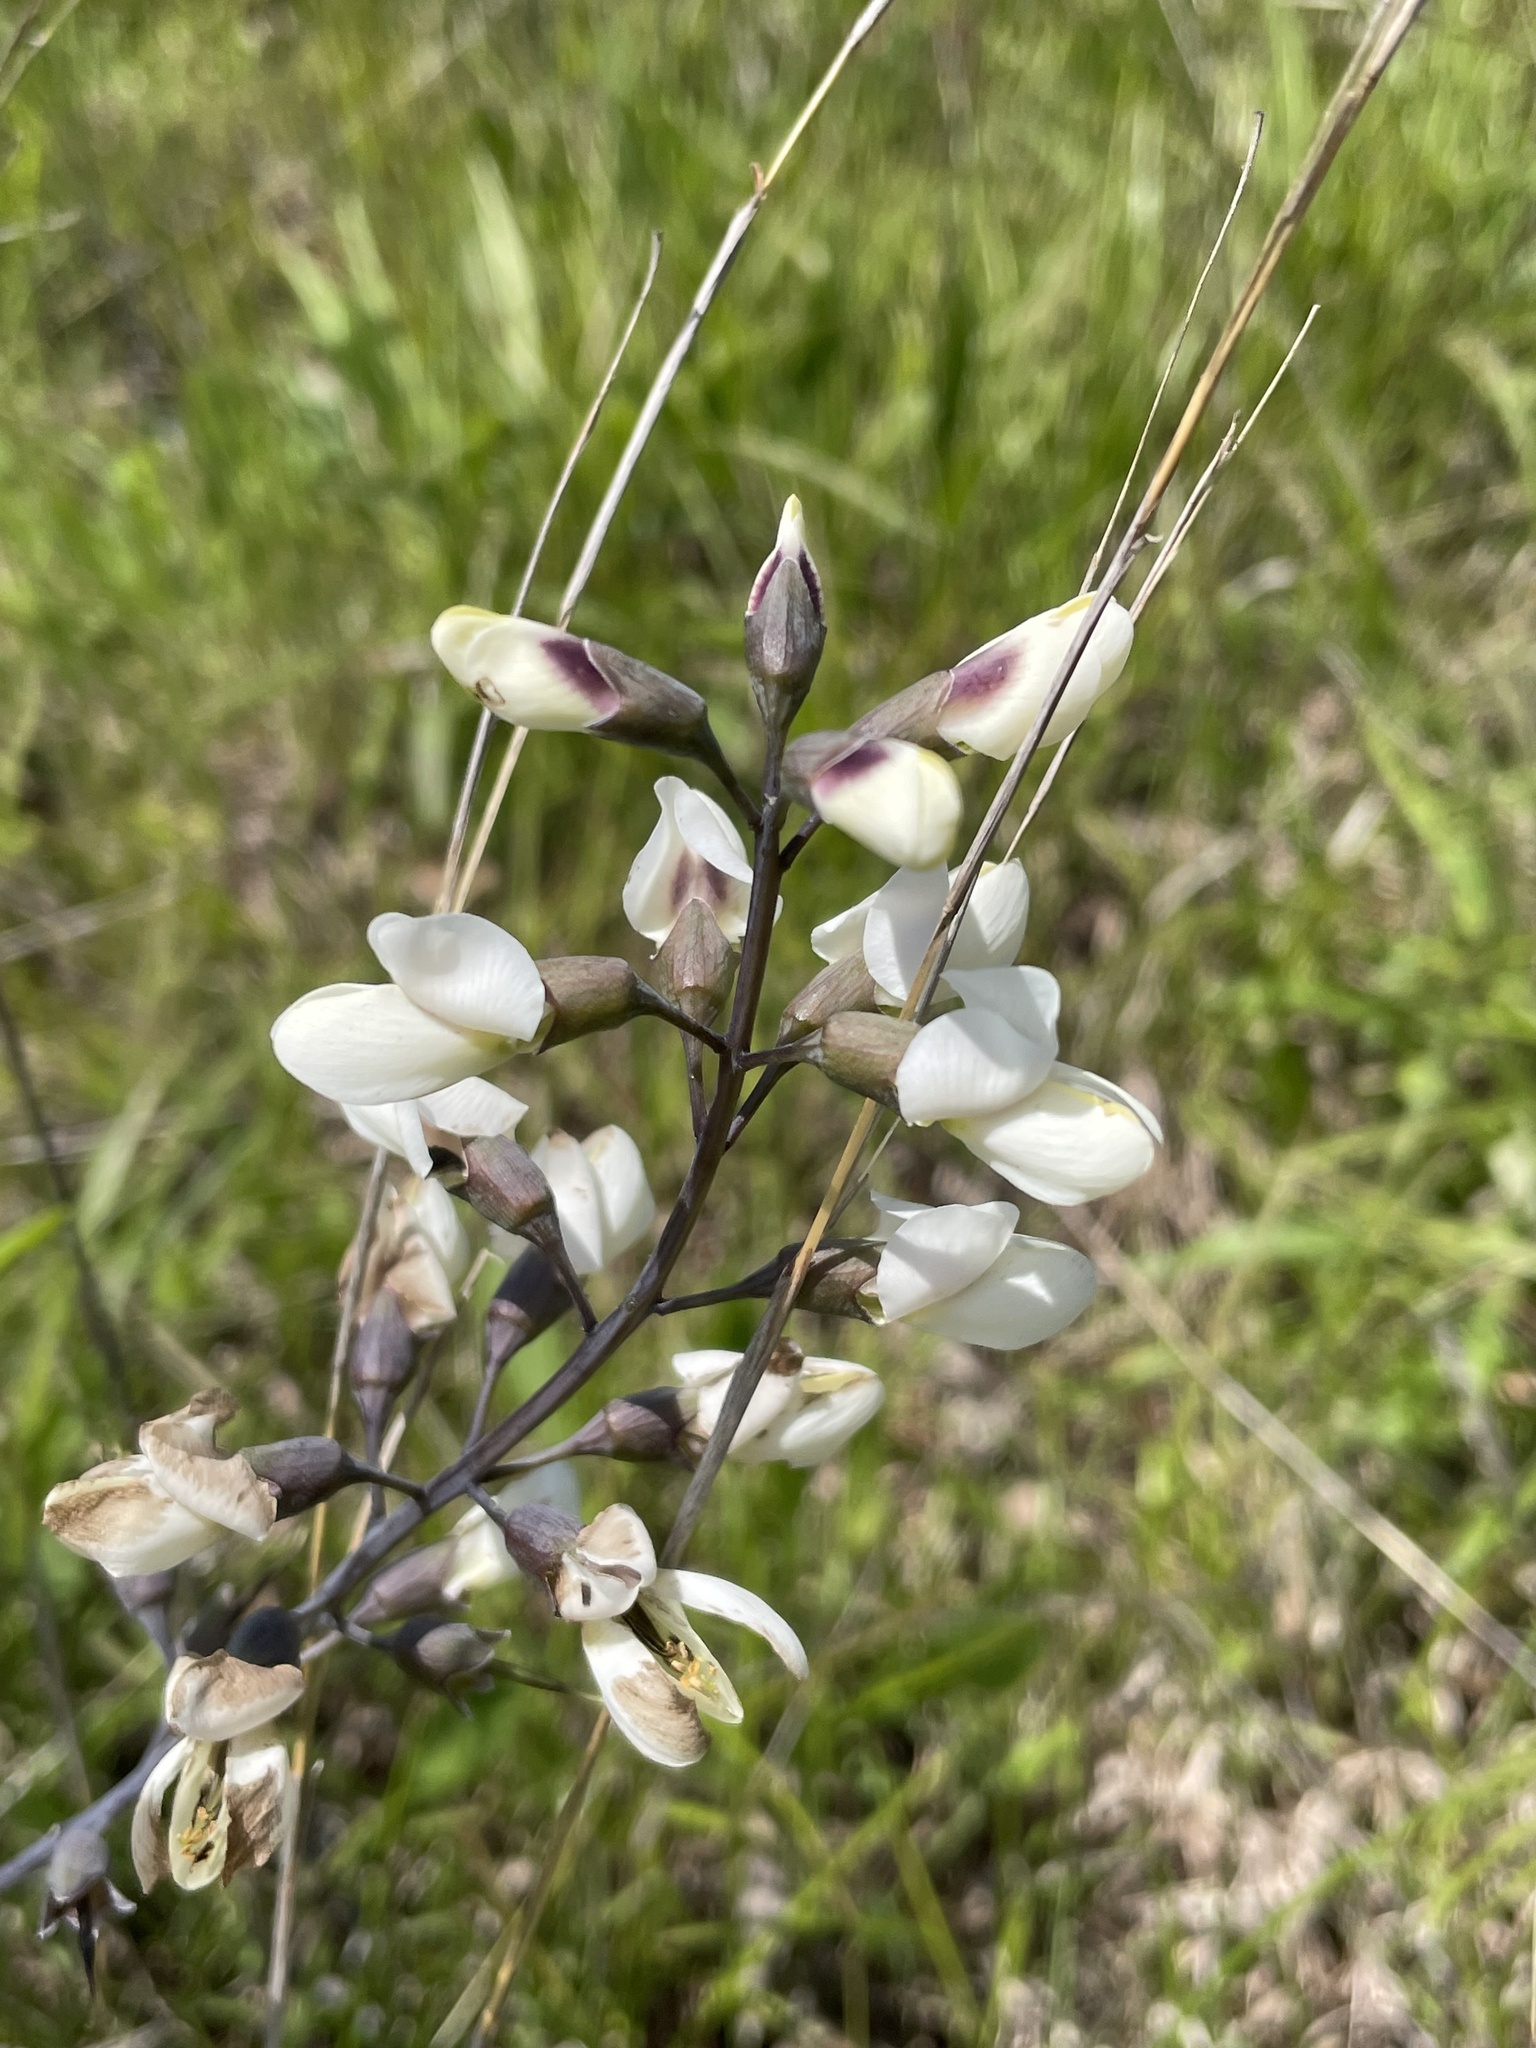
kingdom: Plantae
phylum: Tracheophyta
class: Magnoliopsida
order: Fabales
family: Fabaceae
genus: Baptisia
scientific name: Baptisia alba
